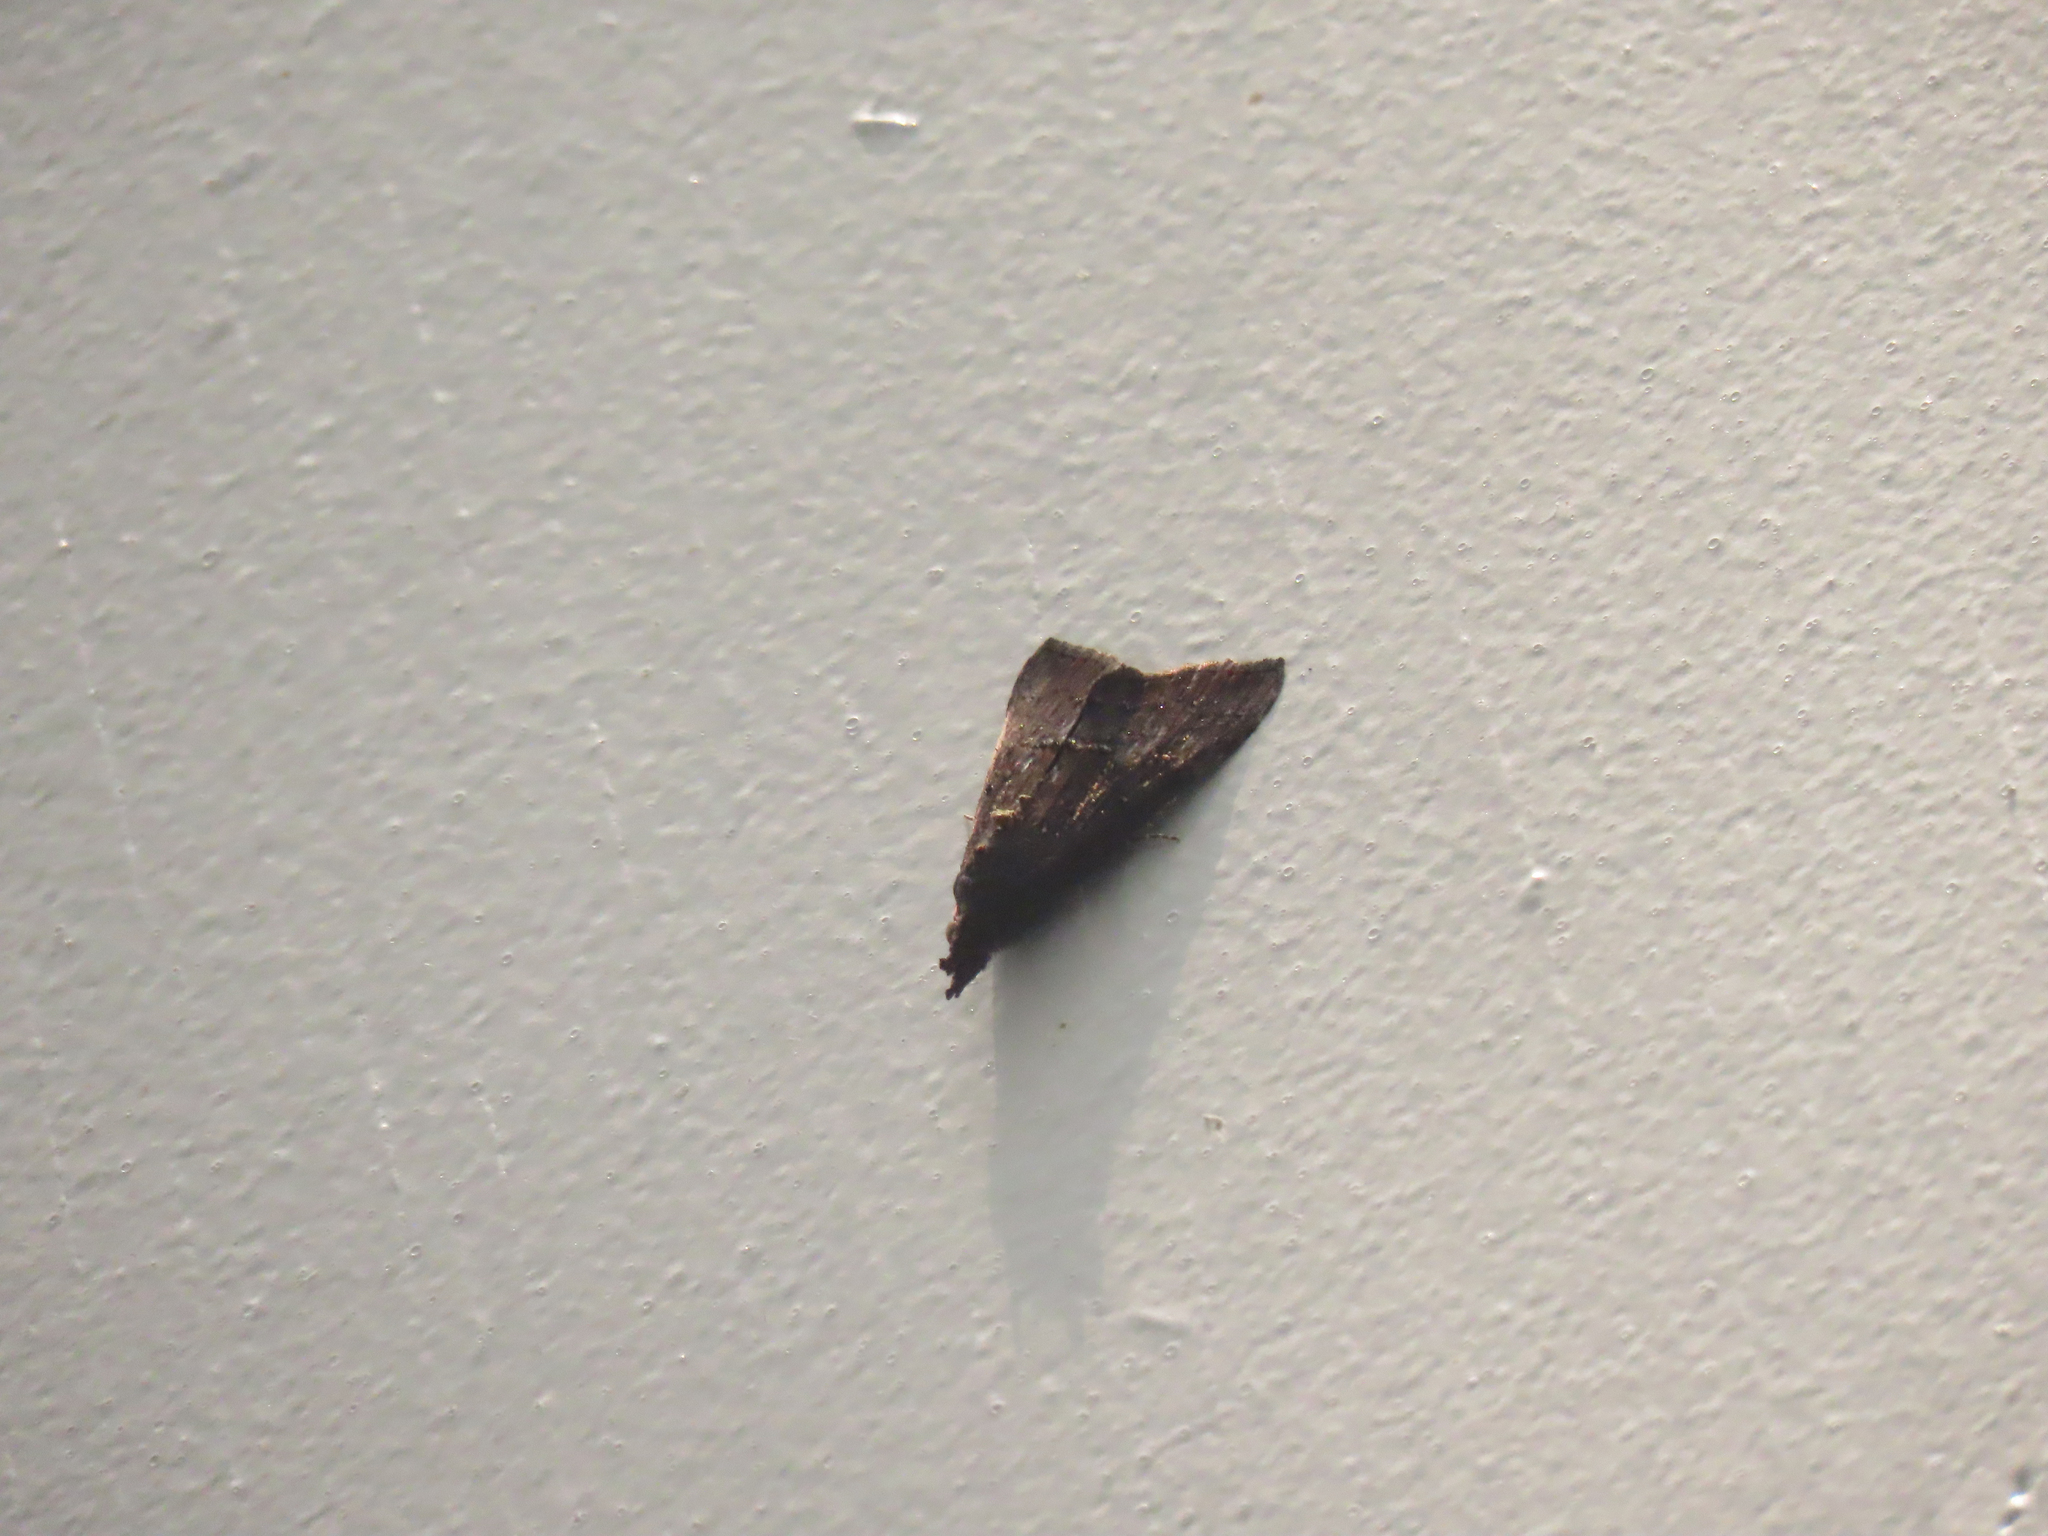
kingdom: Animalia
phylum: Arthropoda
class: Insecta
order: Lepidoptera
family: Erebidae
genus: Hypena
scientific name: Hypena scabra
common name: Green cloverworm
